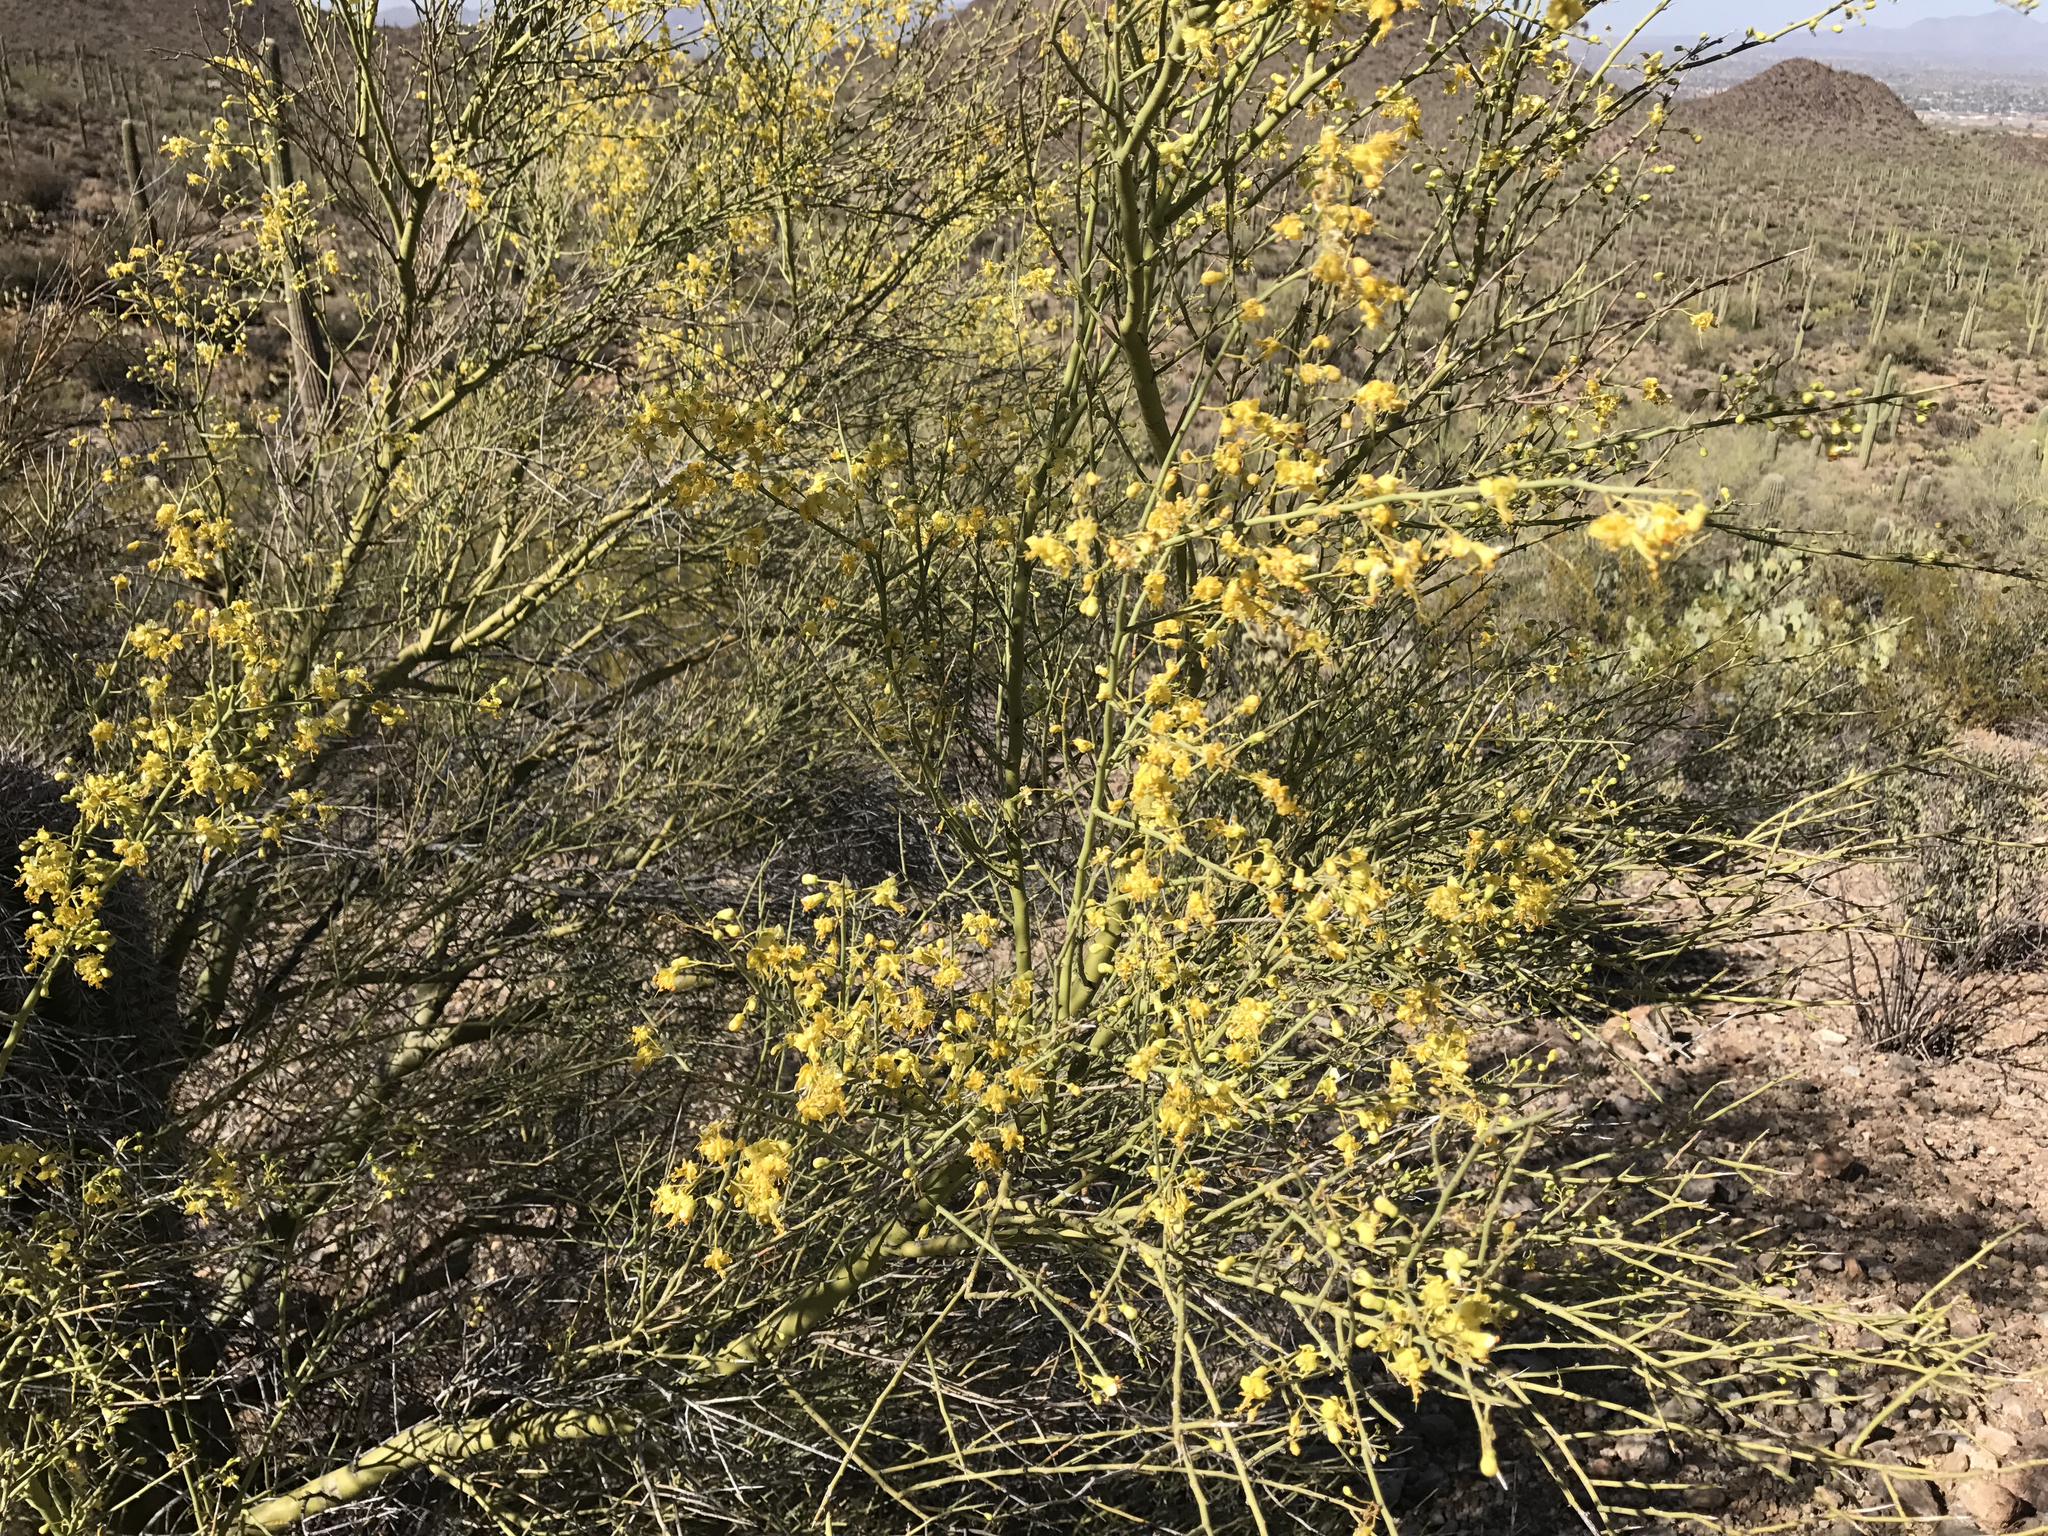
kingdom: Plantae
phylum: Tracheophyta
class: Magnoliopsida
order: Fabales
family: Fabaceae
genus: Parkinsonia
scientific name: Parkinsonia microphylla
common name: Yellow paloverde
